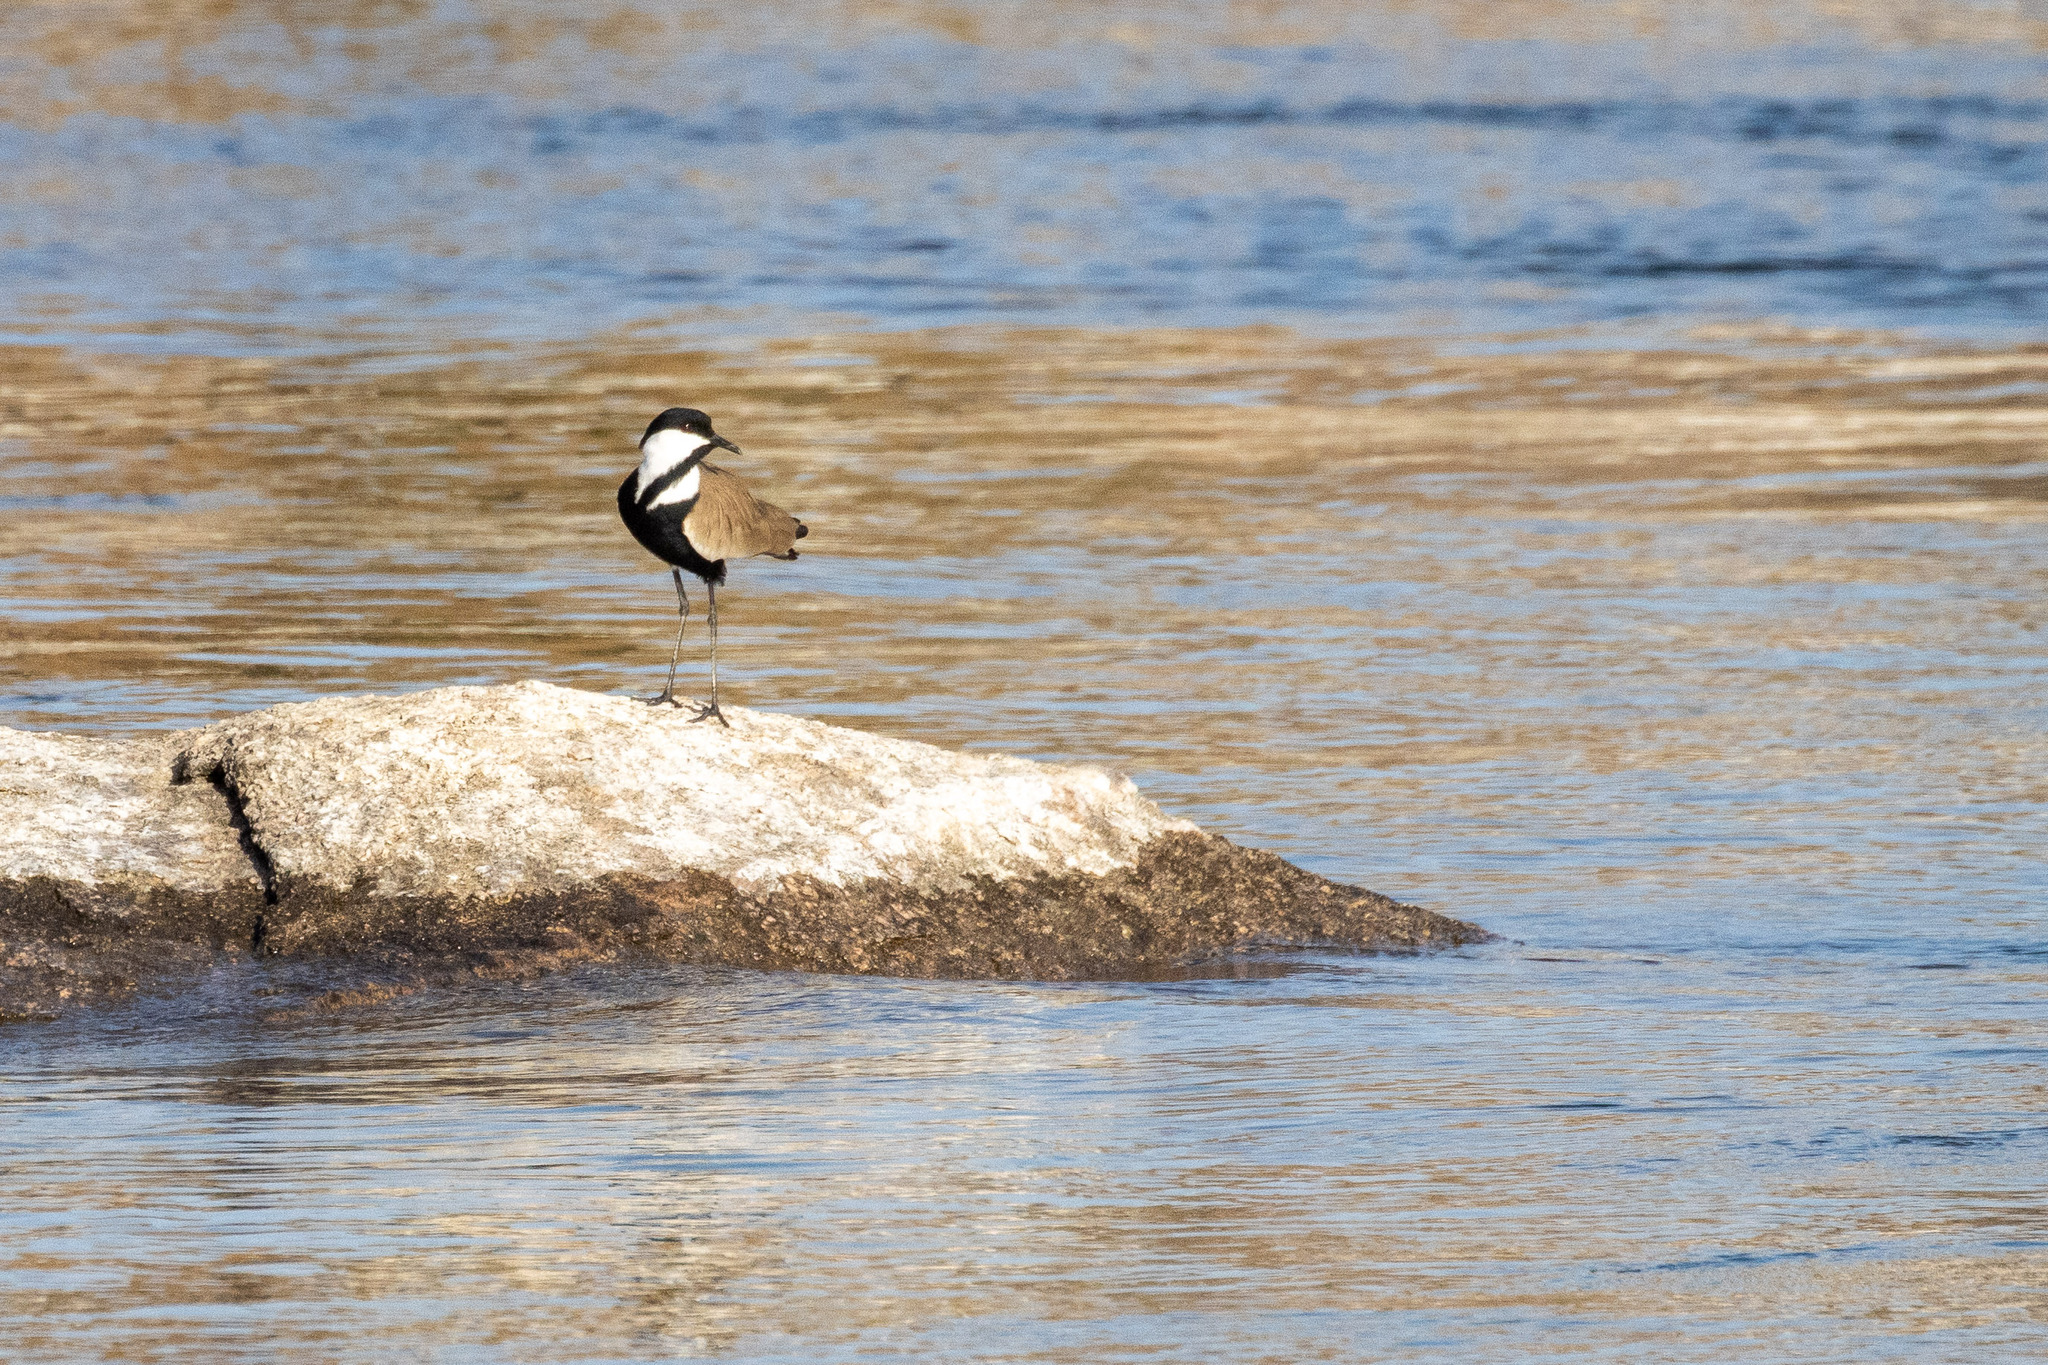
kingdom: Animalia
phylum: Chordata
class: Aves
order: Charadriiformes
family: Charadriidae
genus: Vanellus
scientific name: Vanellus spinosus
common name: Spur-winged lapwing
